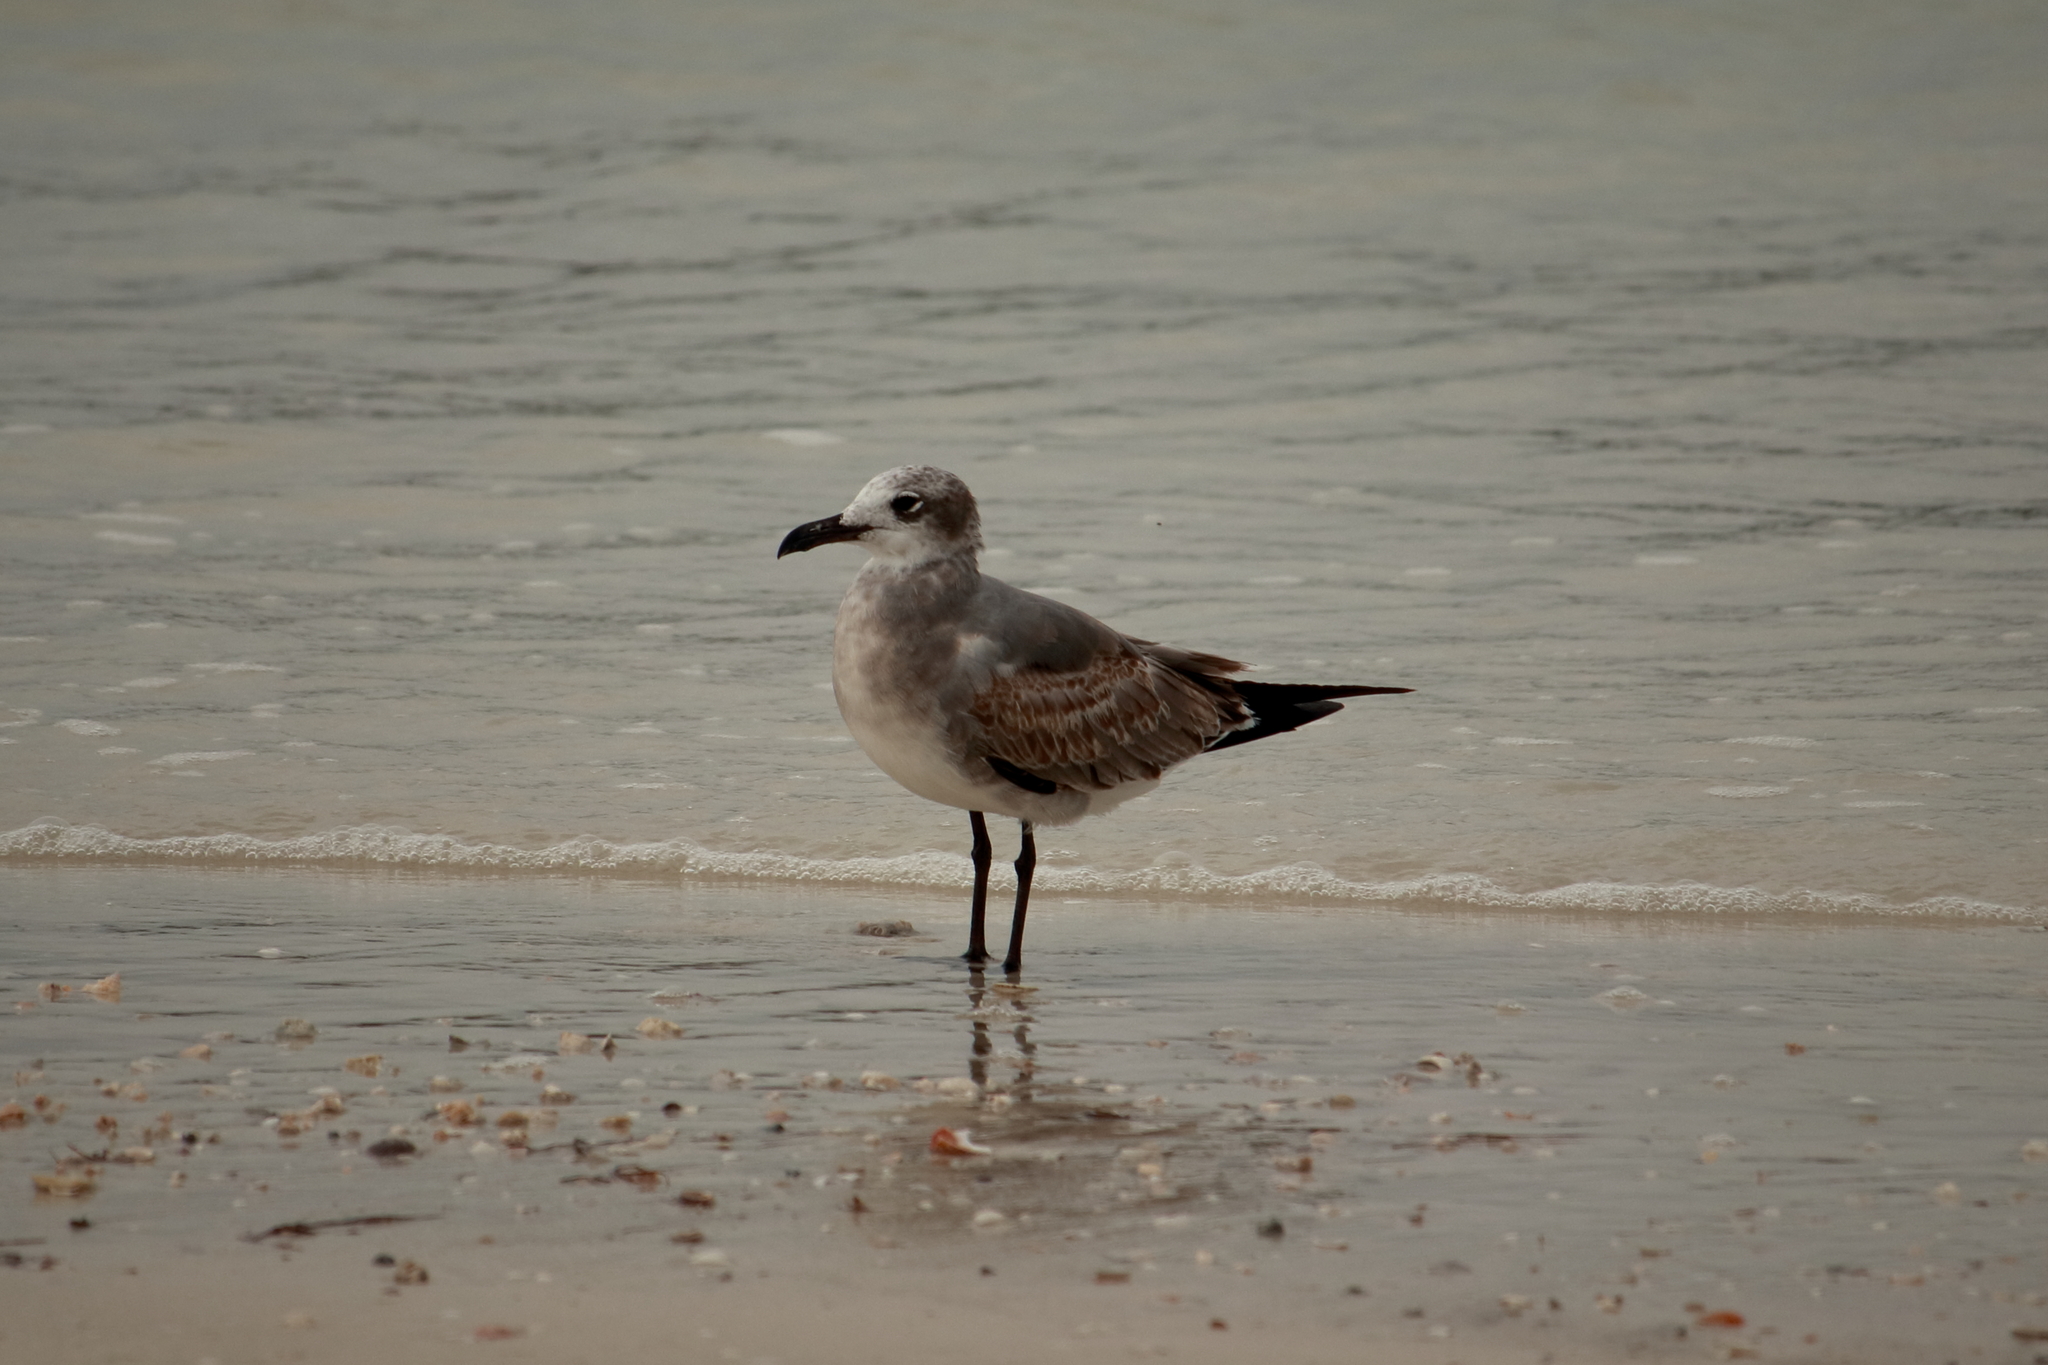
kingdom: Animalia
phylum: Chordata
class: Aves
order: Charadriiformes
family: Laridae
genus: Leucophaeus
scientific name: Leucophaeus atricilla
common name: Laughing gull
